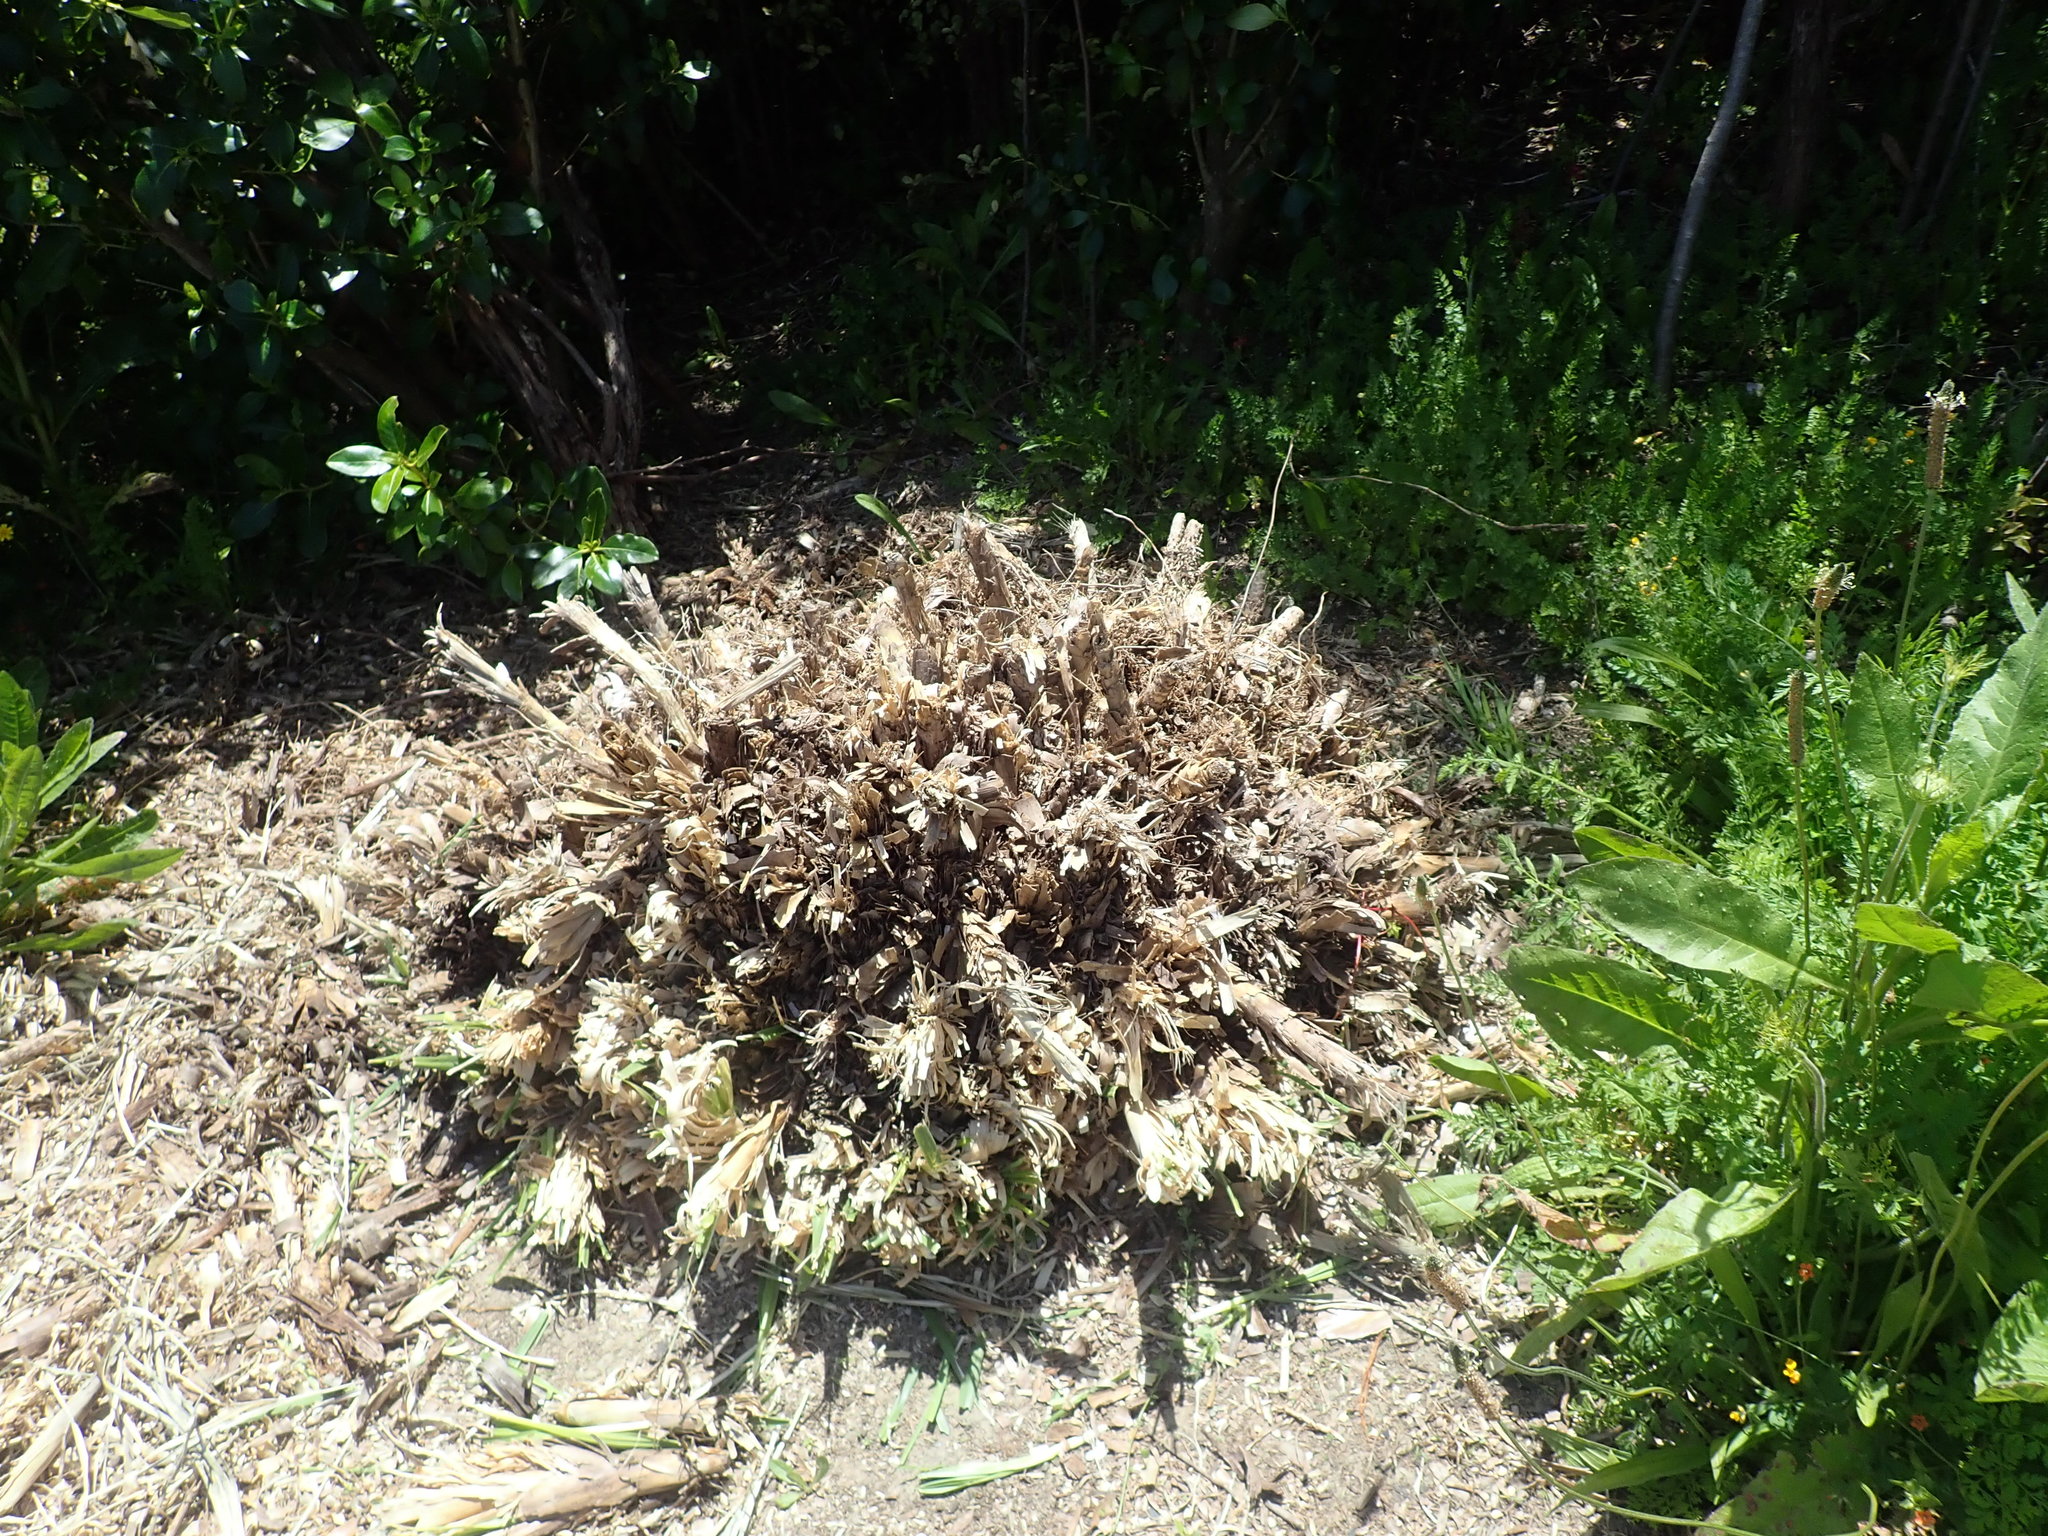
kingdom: Plantae
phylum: Tracheophyta
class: Magnoliopsida
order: Geraniales
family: Geraniaceae
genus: Geranium
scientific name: Geranium robertianum
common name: Herb-robert
